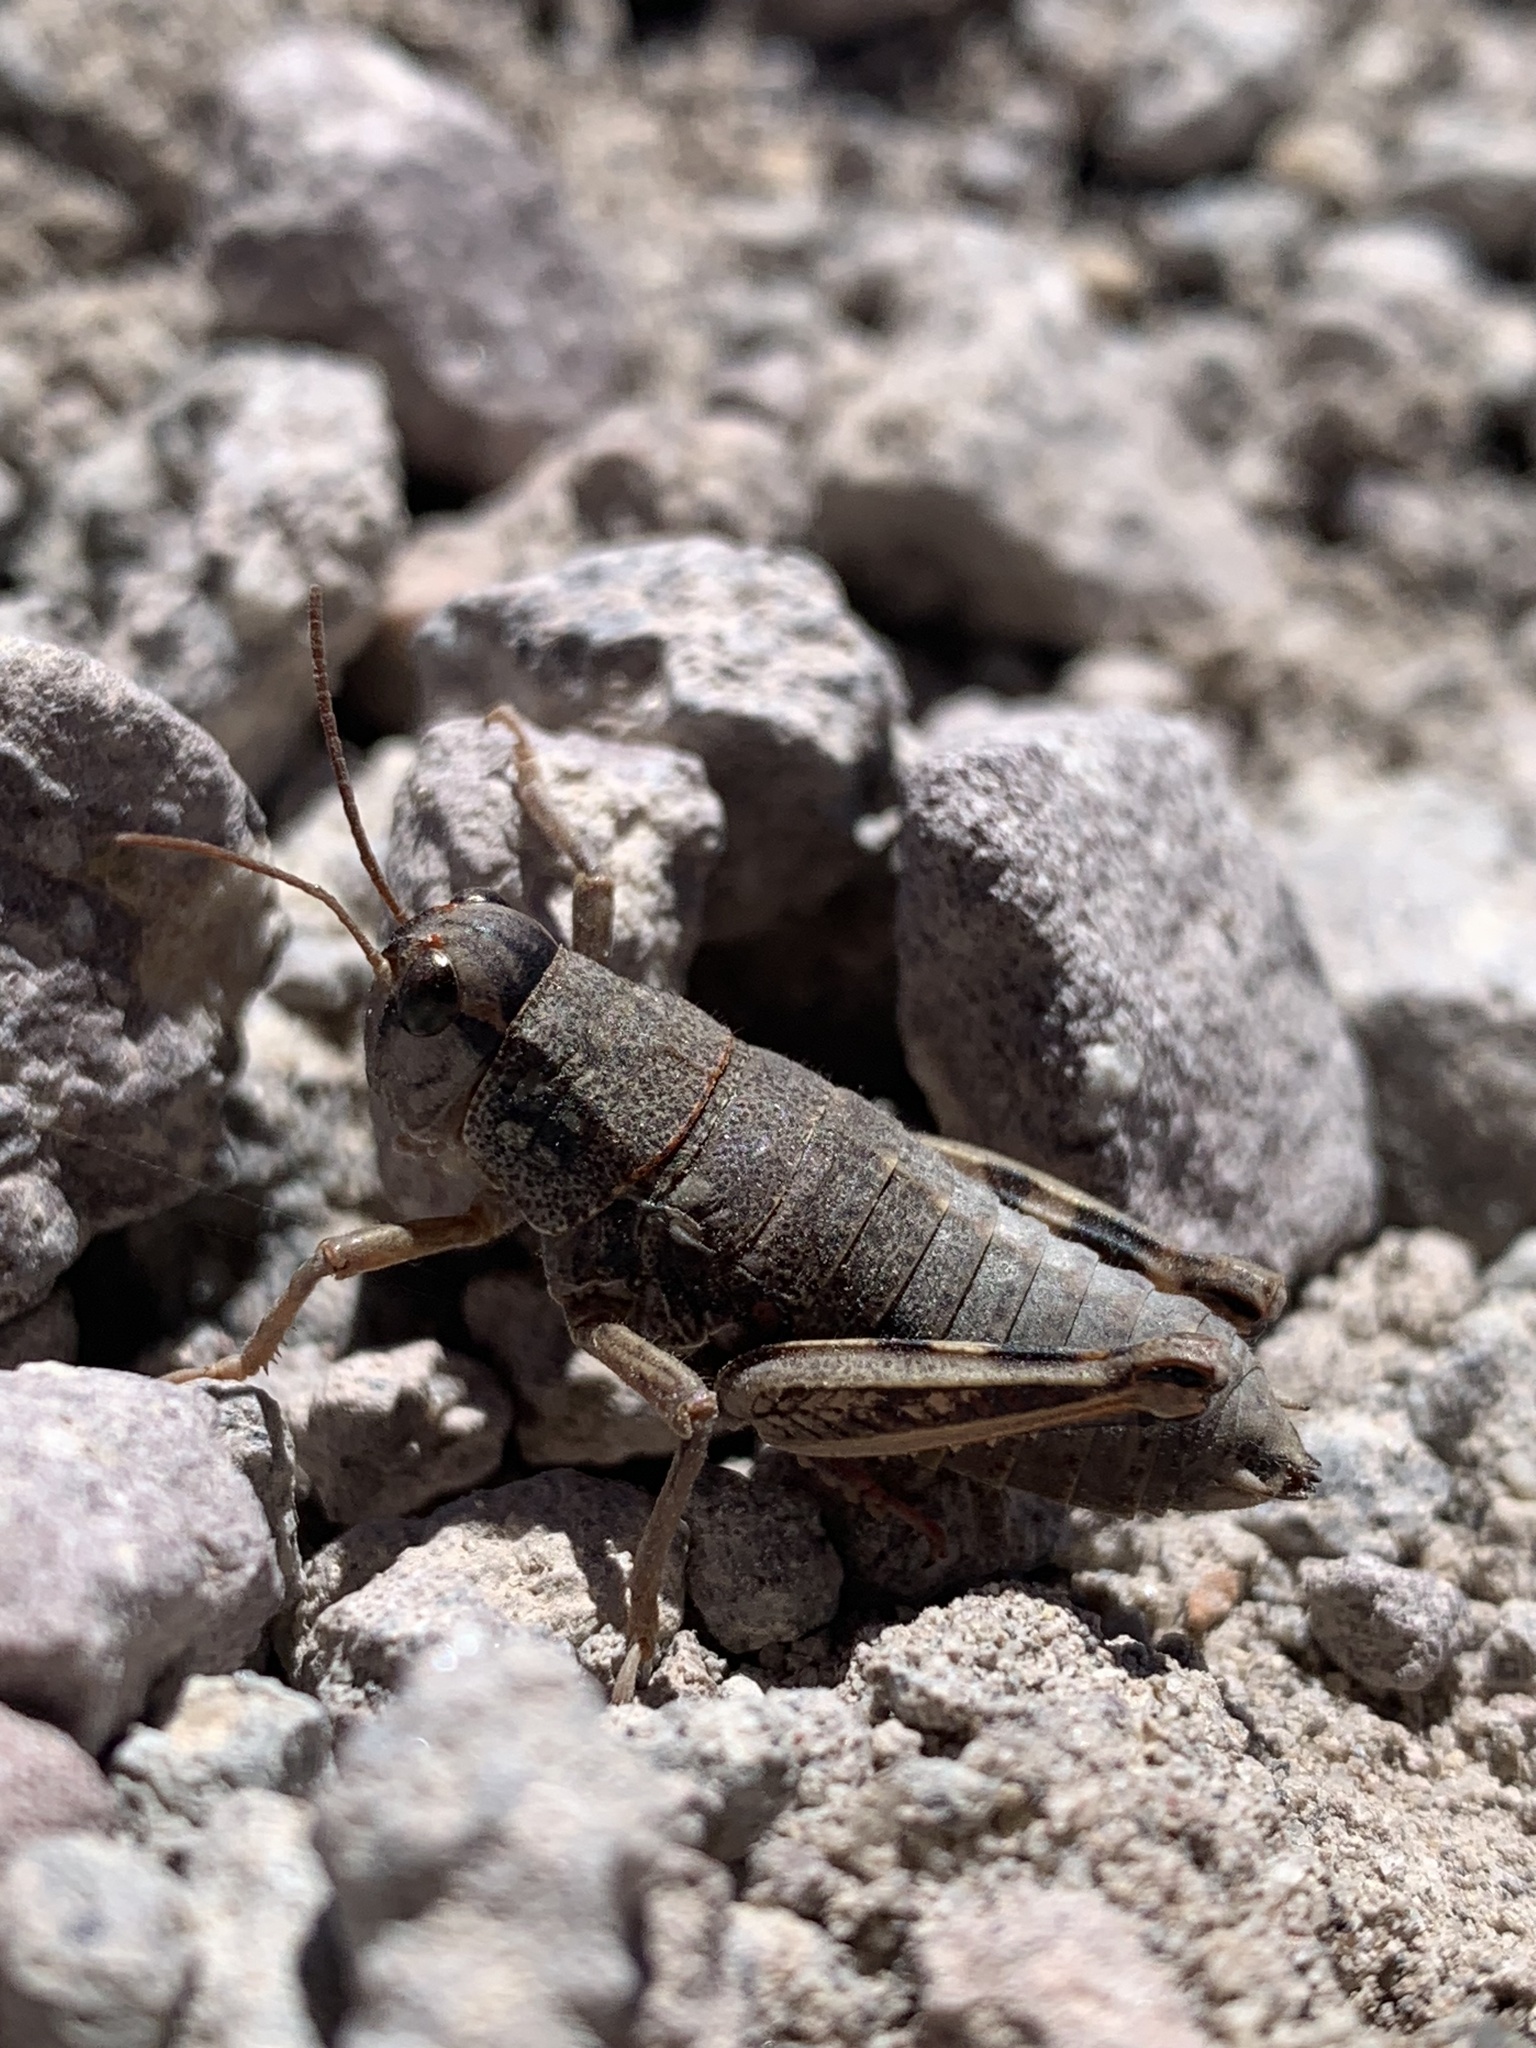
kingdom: Animalia
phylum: Arthropoda
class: Insecta
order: Orthoptera
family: Acrididae
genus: Bradynotes
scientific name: Bradynotes obesa
